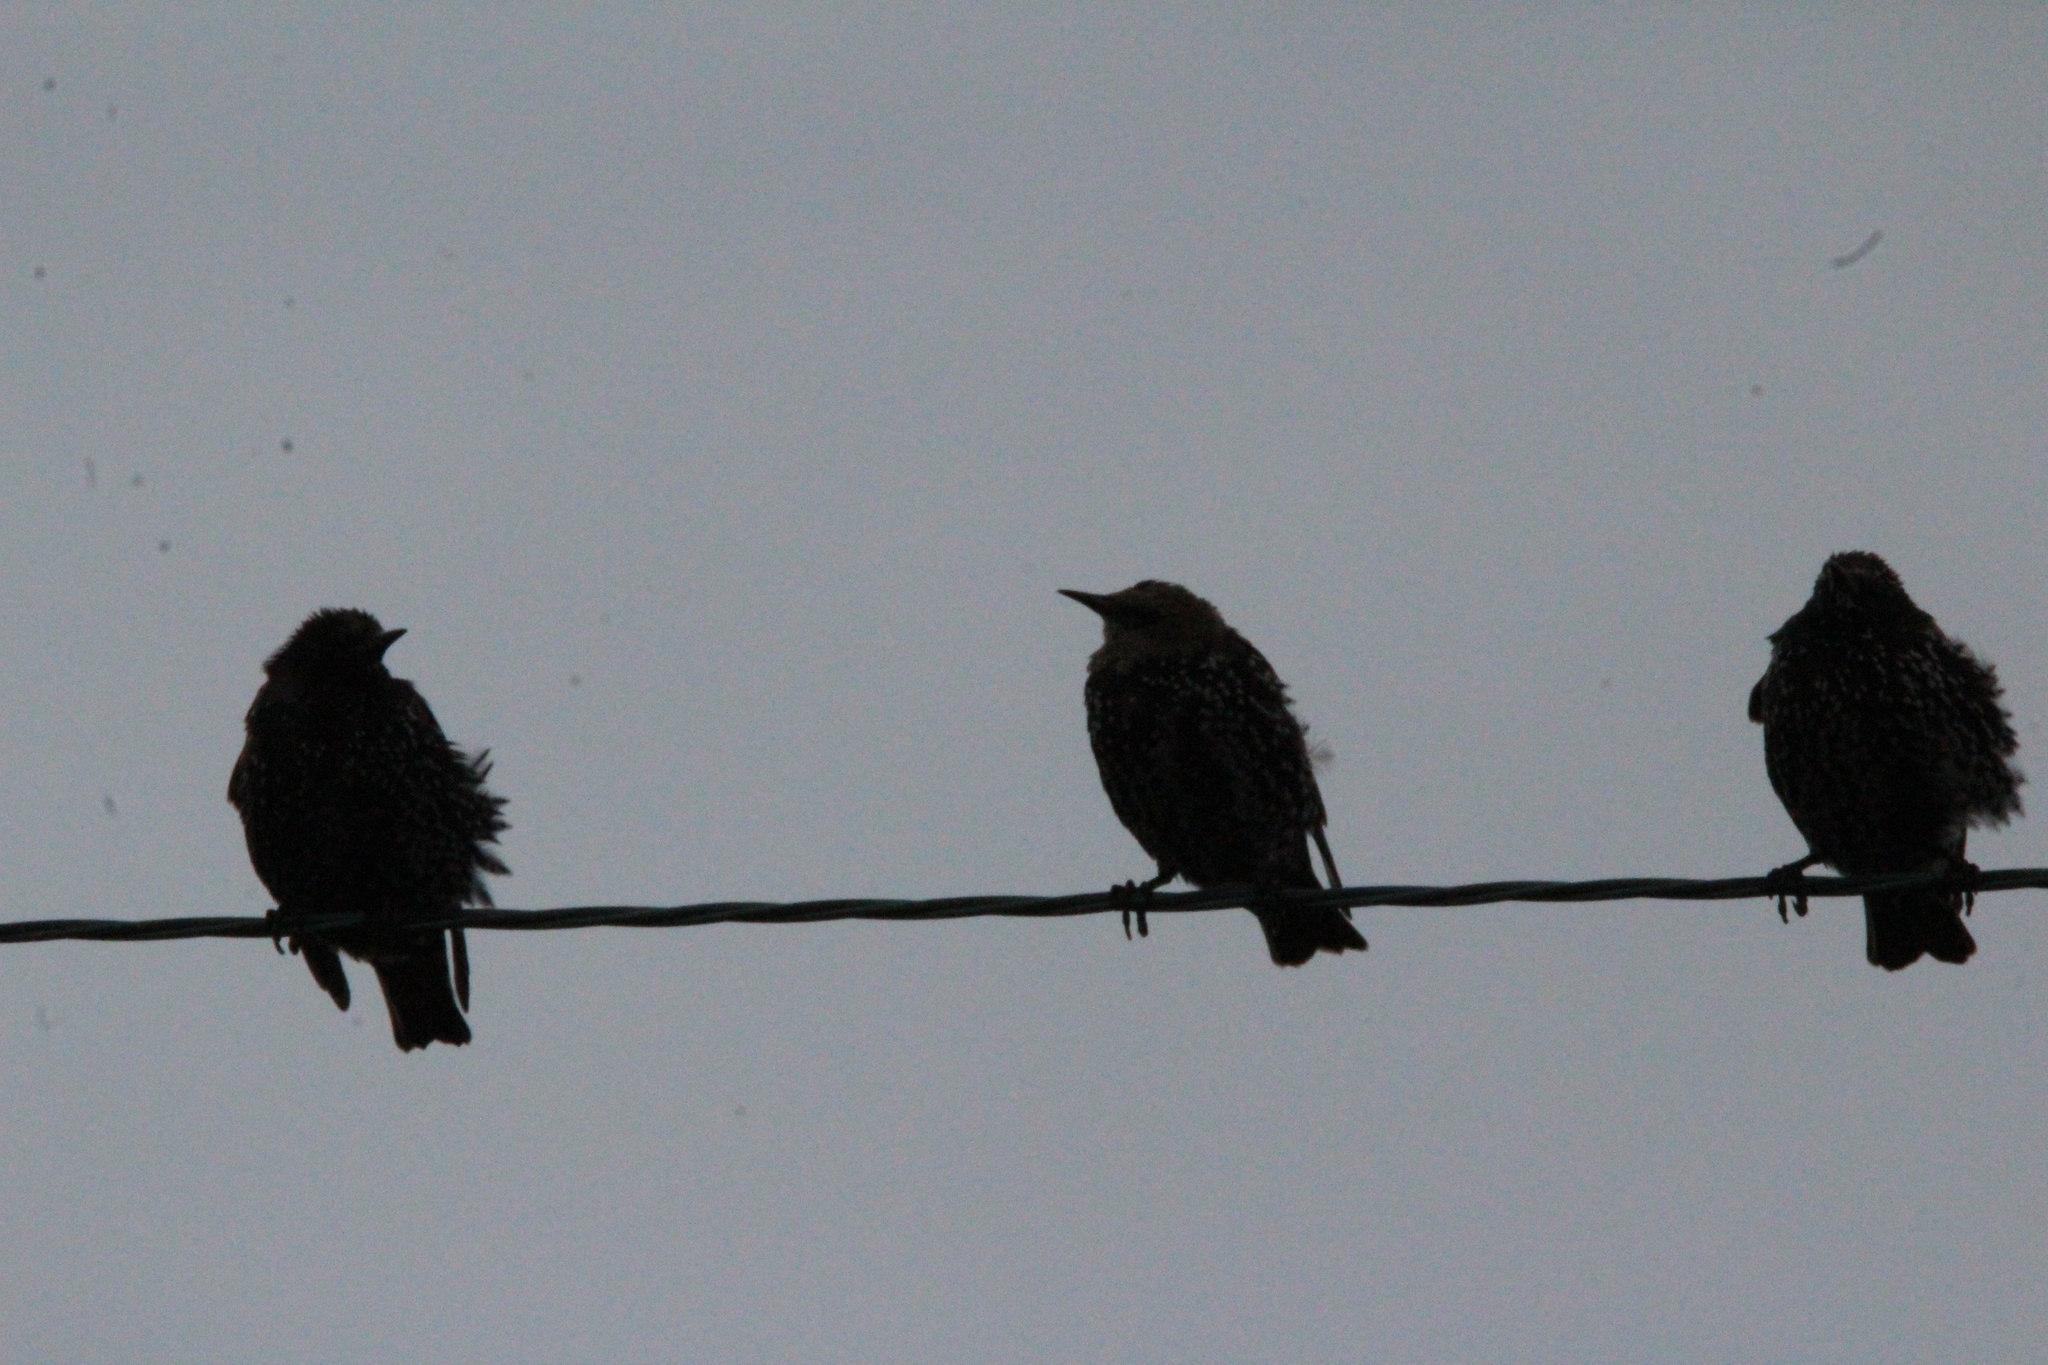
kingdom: Animalia
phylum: Chordata
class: Aves
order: Passeriformes
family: Sturnidae
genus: Sturnus
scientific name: Sturnus vulgaris
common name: Common starling
